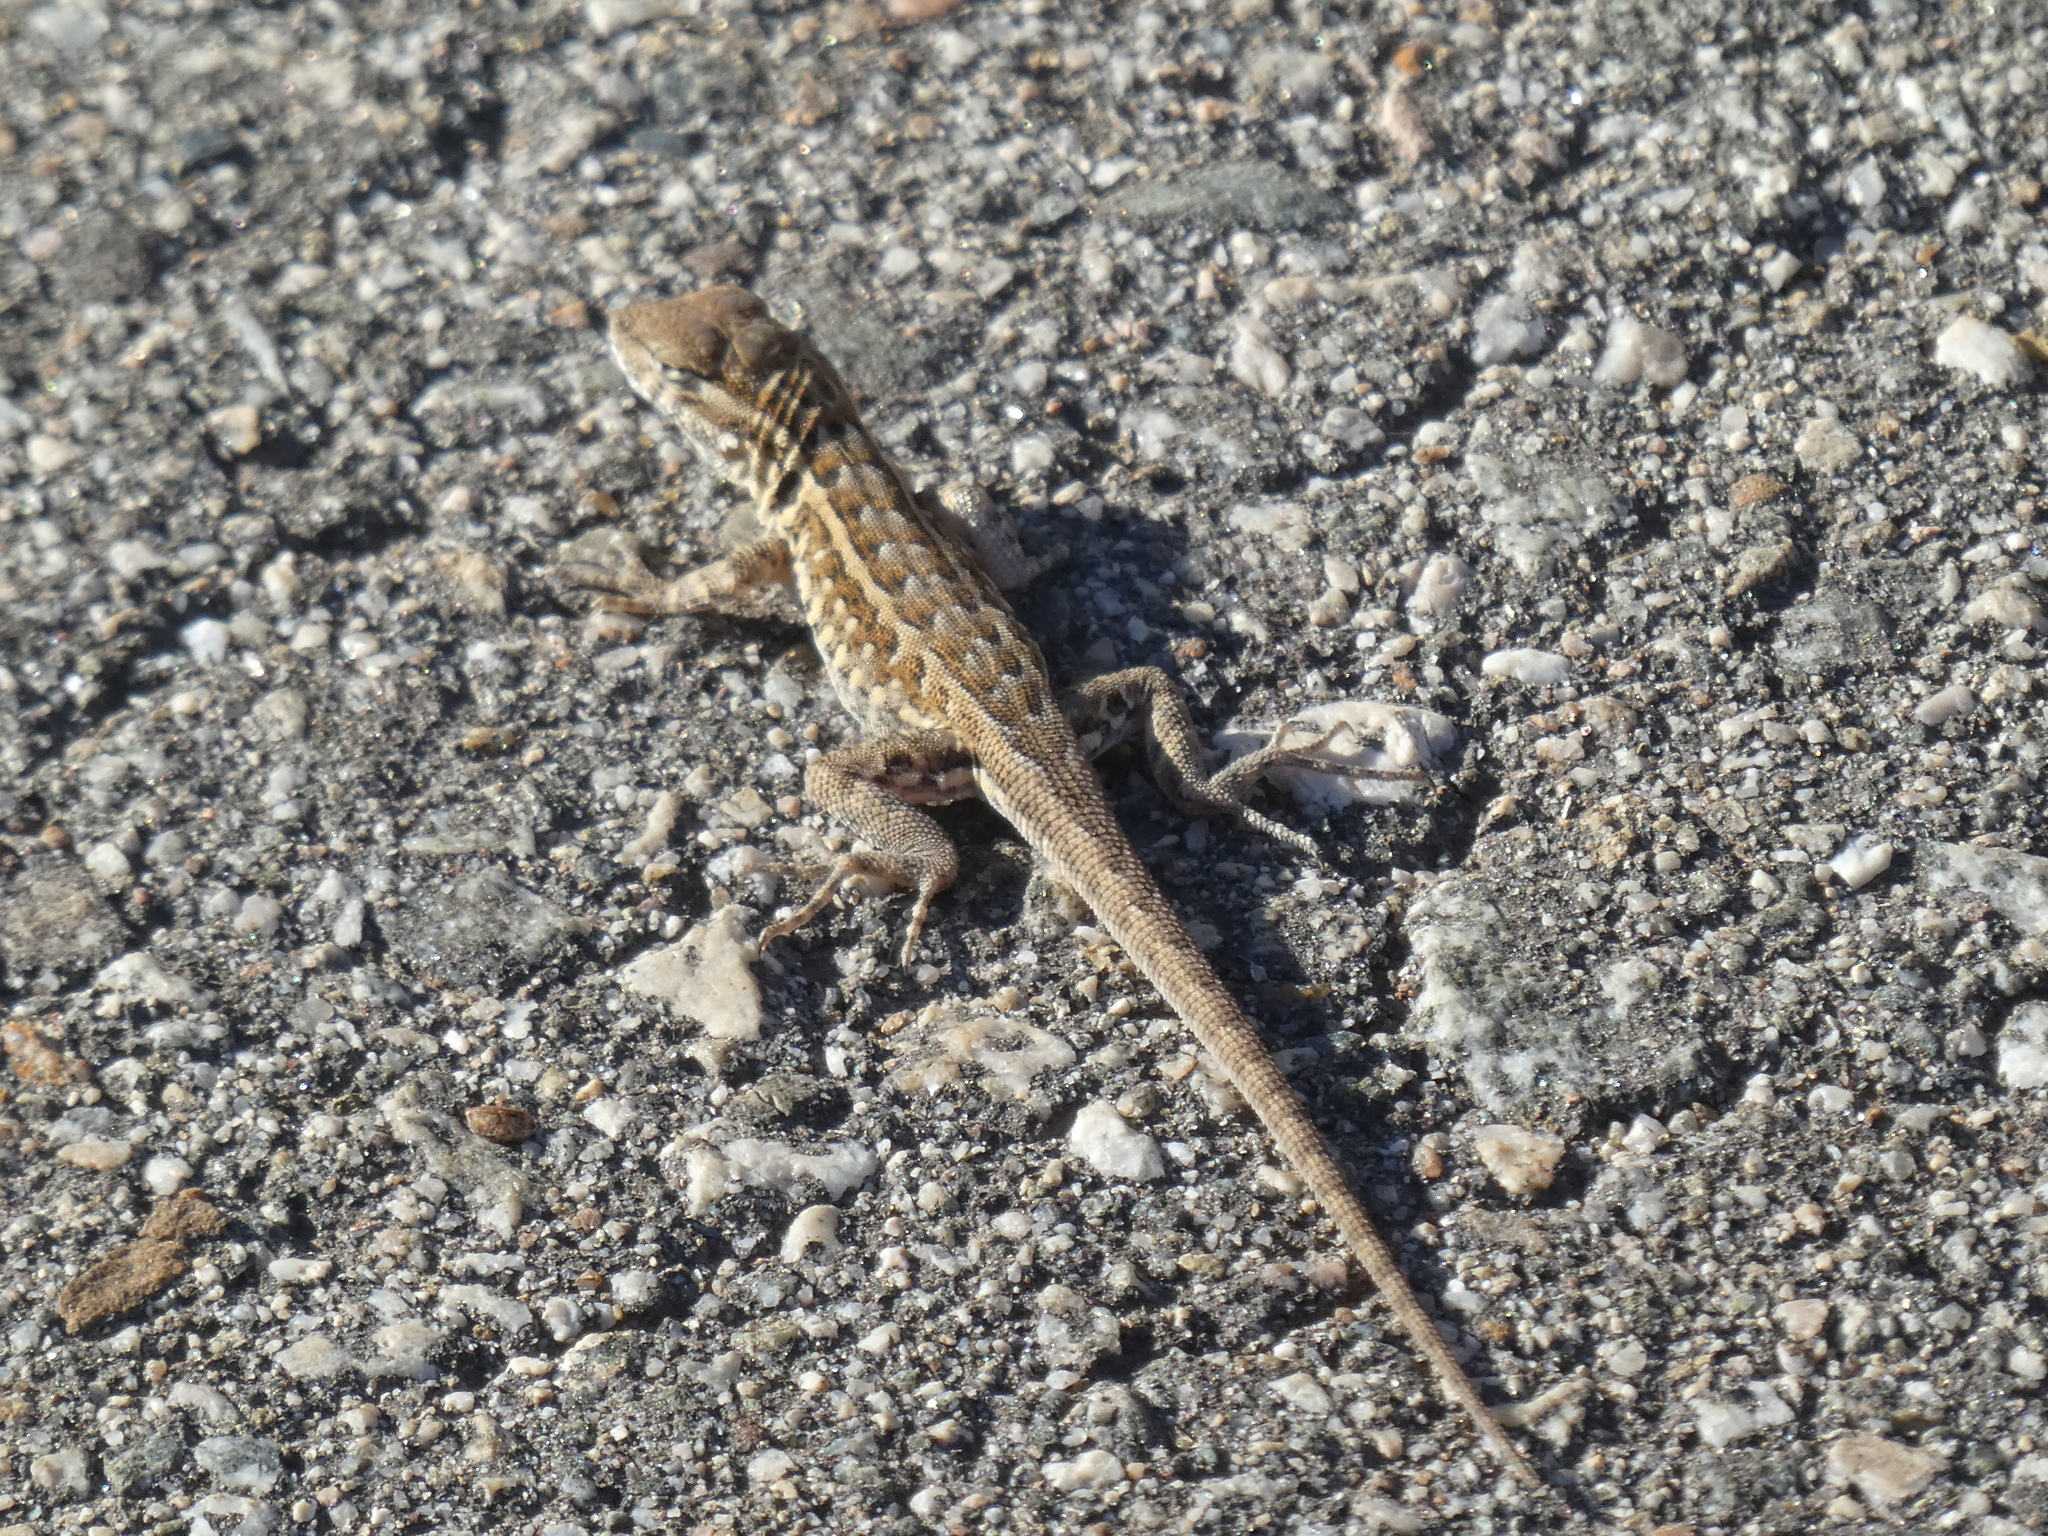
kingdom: Animalia
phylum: Chordata
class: Squamata
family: Phrynosomatidae
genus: Uta
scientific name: Uta stansburiana
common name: Side-blotched lizard
